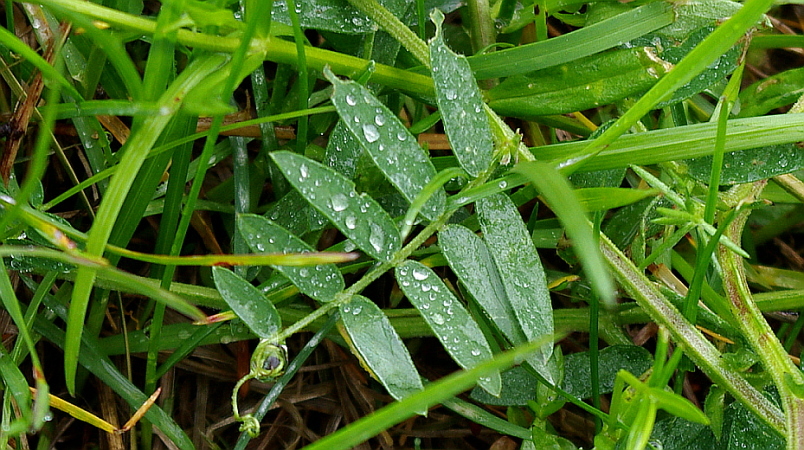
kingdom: Plantae
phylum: Tracheophyta
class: Magnoliopsida
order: Fabales
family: Fabaceae
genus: Vicia
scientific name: Vicia cracca
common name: Bird vetch
